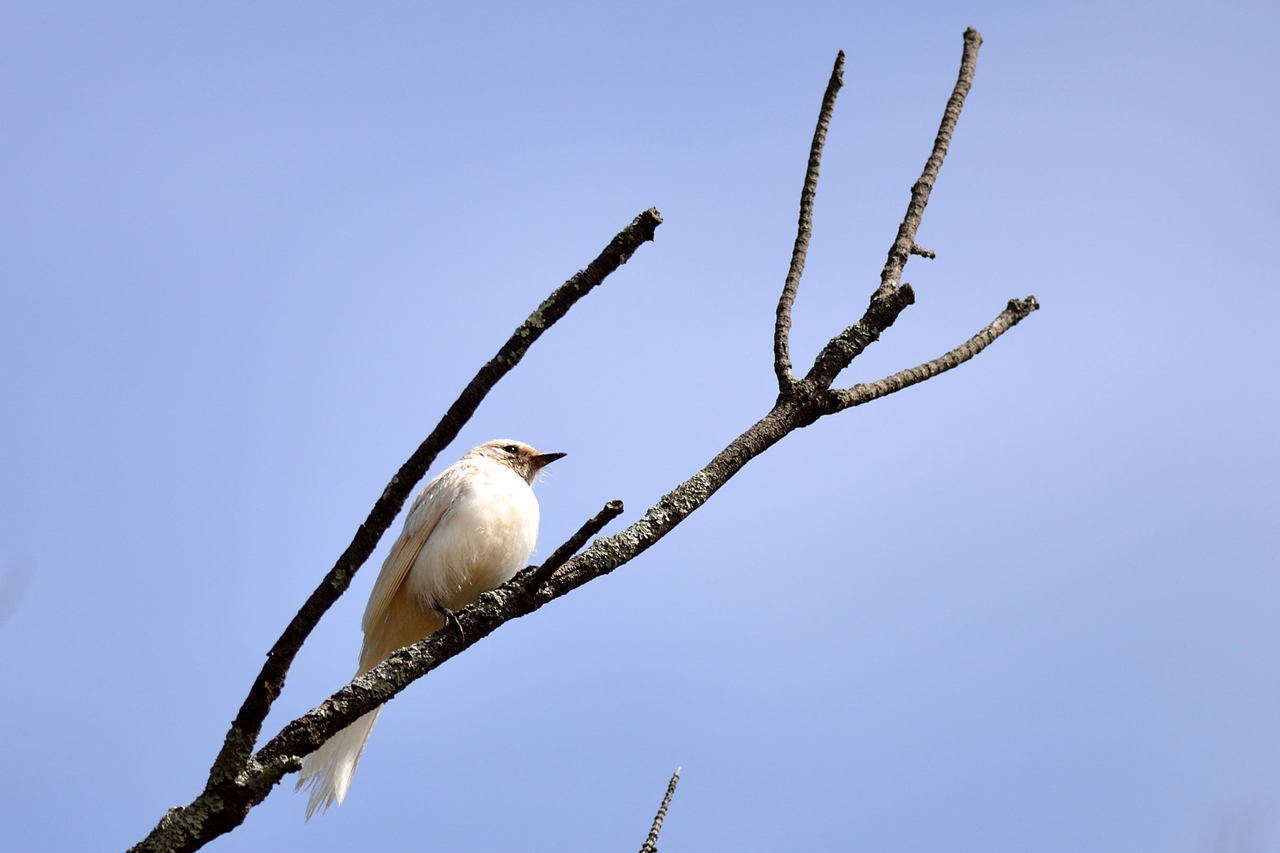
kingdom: Animalia
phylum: Chordata
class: Aves
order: Passeriformes
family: Rhipiduridae
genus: Rhipidura
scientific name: Rhipidura leucophrys
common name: Willie wagtail
